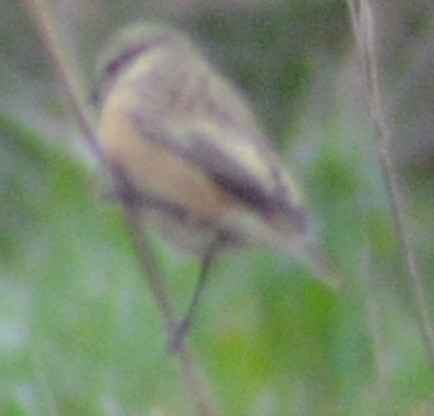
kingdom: Animalia
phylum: Chordata
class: Aves
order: Passeriformes
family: Muscicapidae
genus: Saxicola
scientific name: Saxicola rubicola
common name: European stonechat
